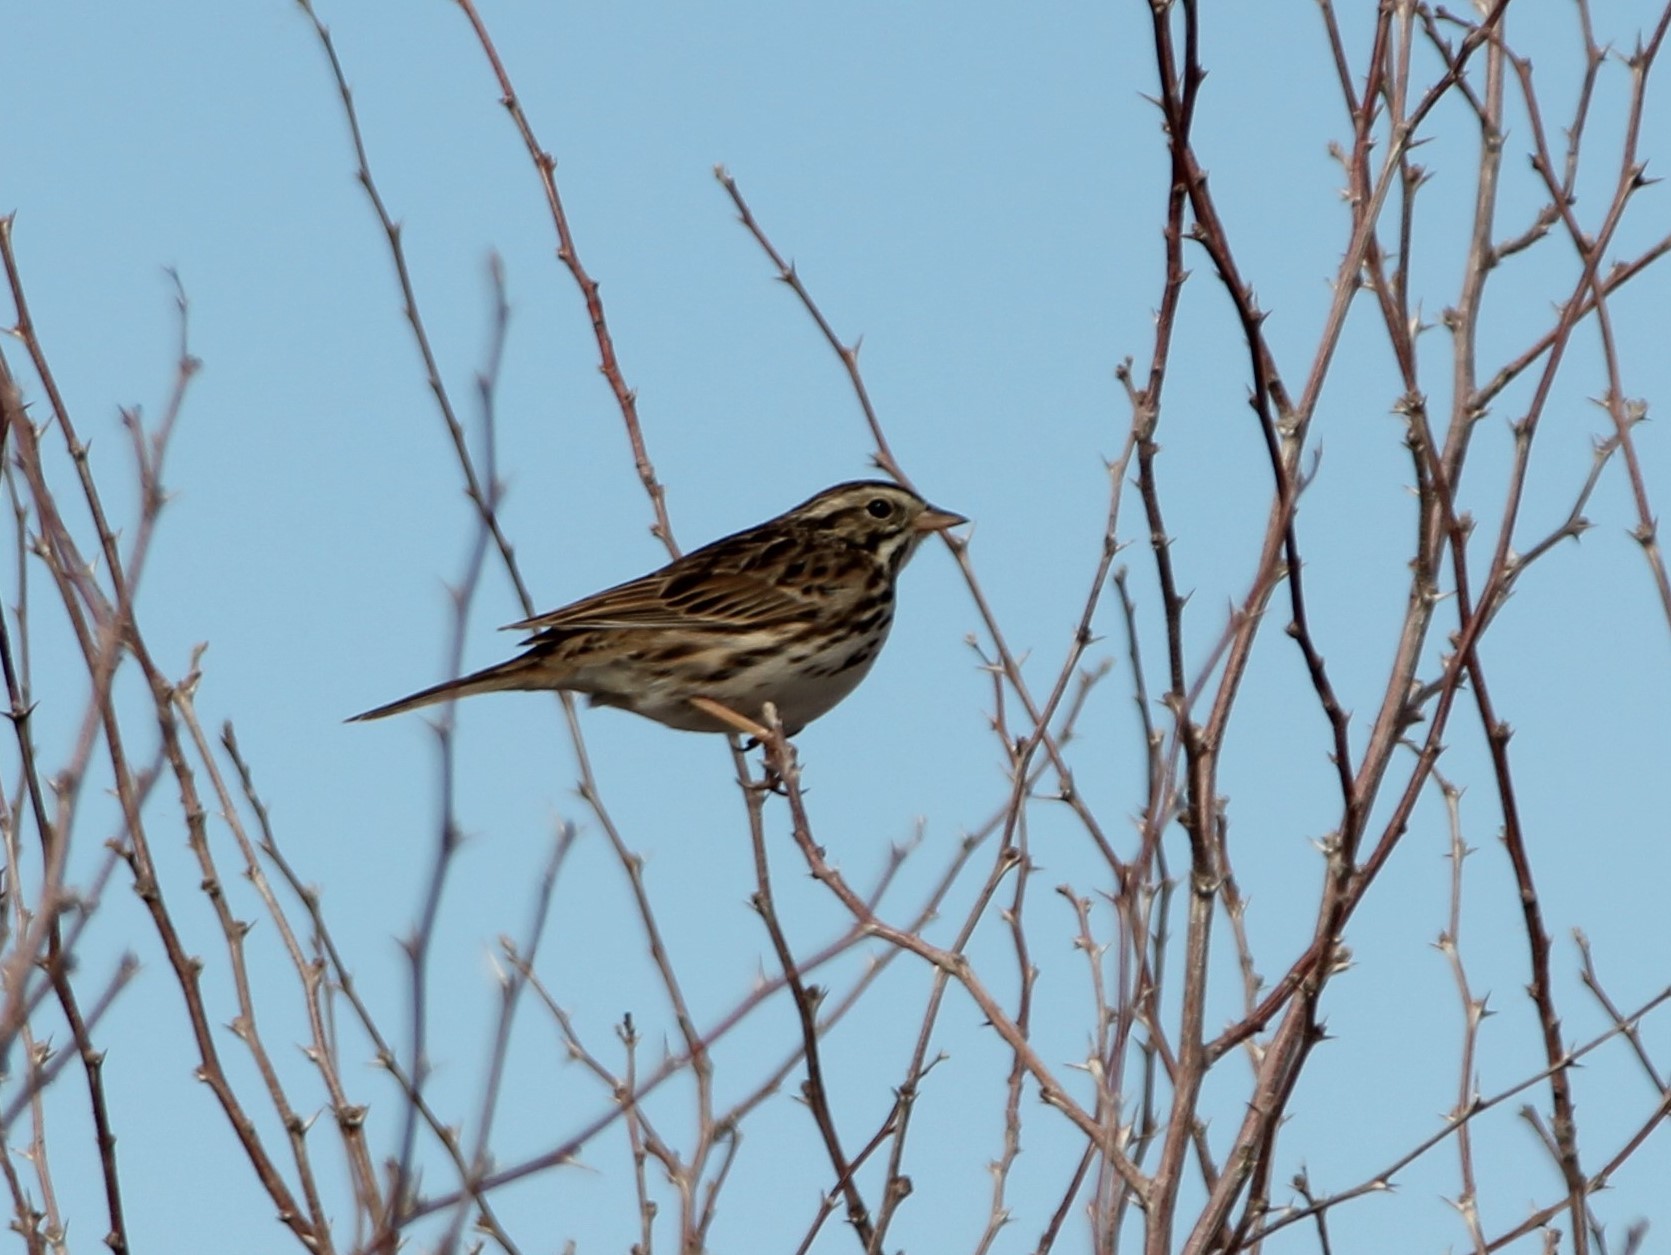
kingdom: Animalia
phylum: Chordata
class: Aves
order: Passeriformes
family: Passerellidae
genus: Passerculus
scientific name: Passerculus sandwichensis
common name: Savannah sparrow
